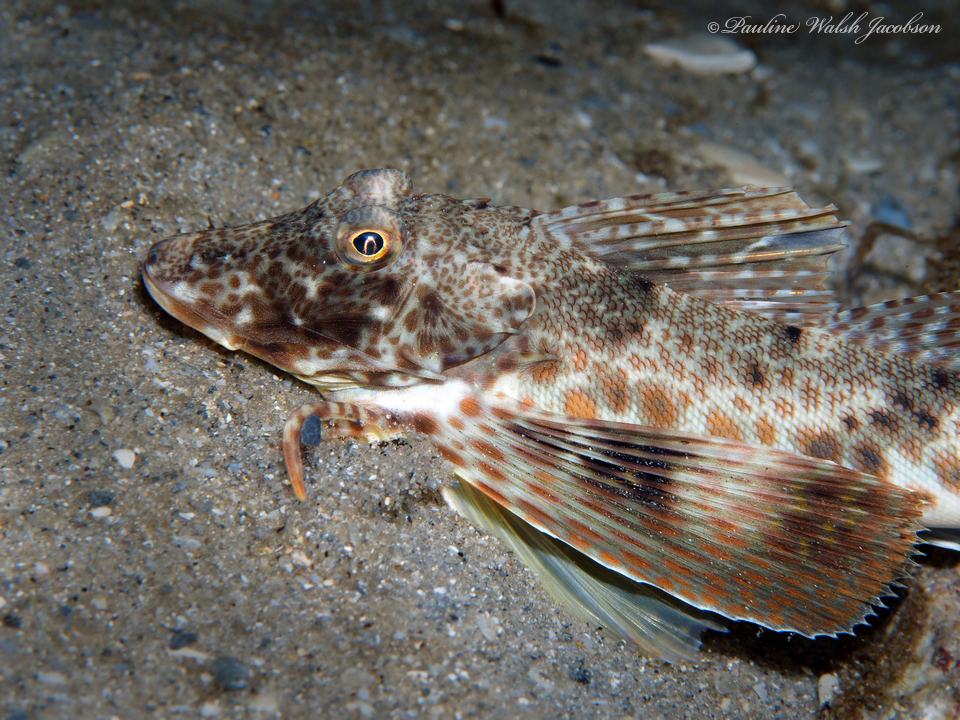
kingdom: Animalia
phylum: Chordata
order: Scorpaeniformes
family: Triglidae
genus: Prionotus
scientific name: Prionotus scitulus
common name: Leopard searobin
